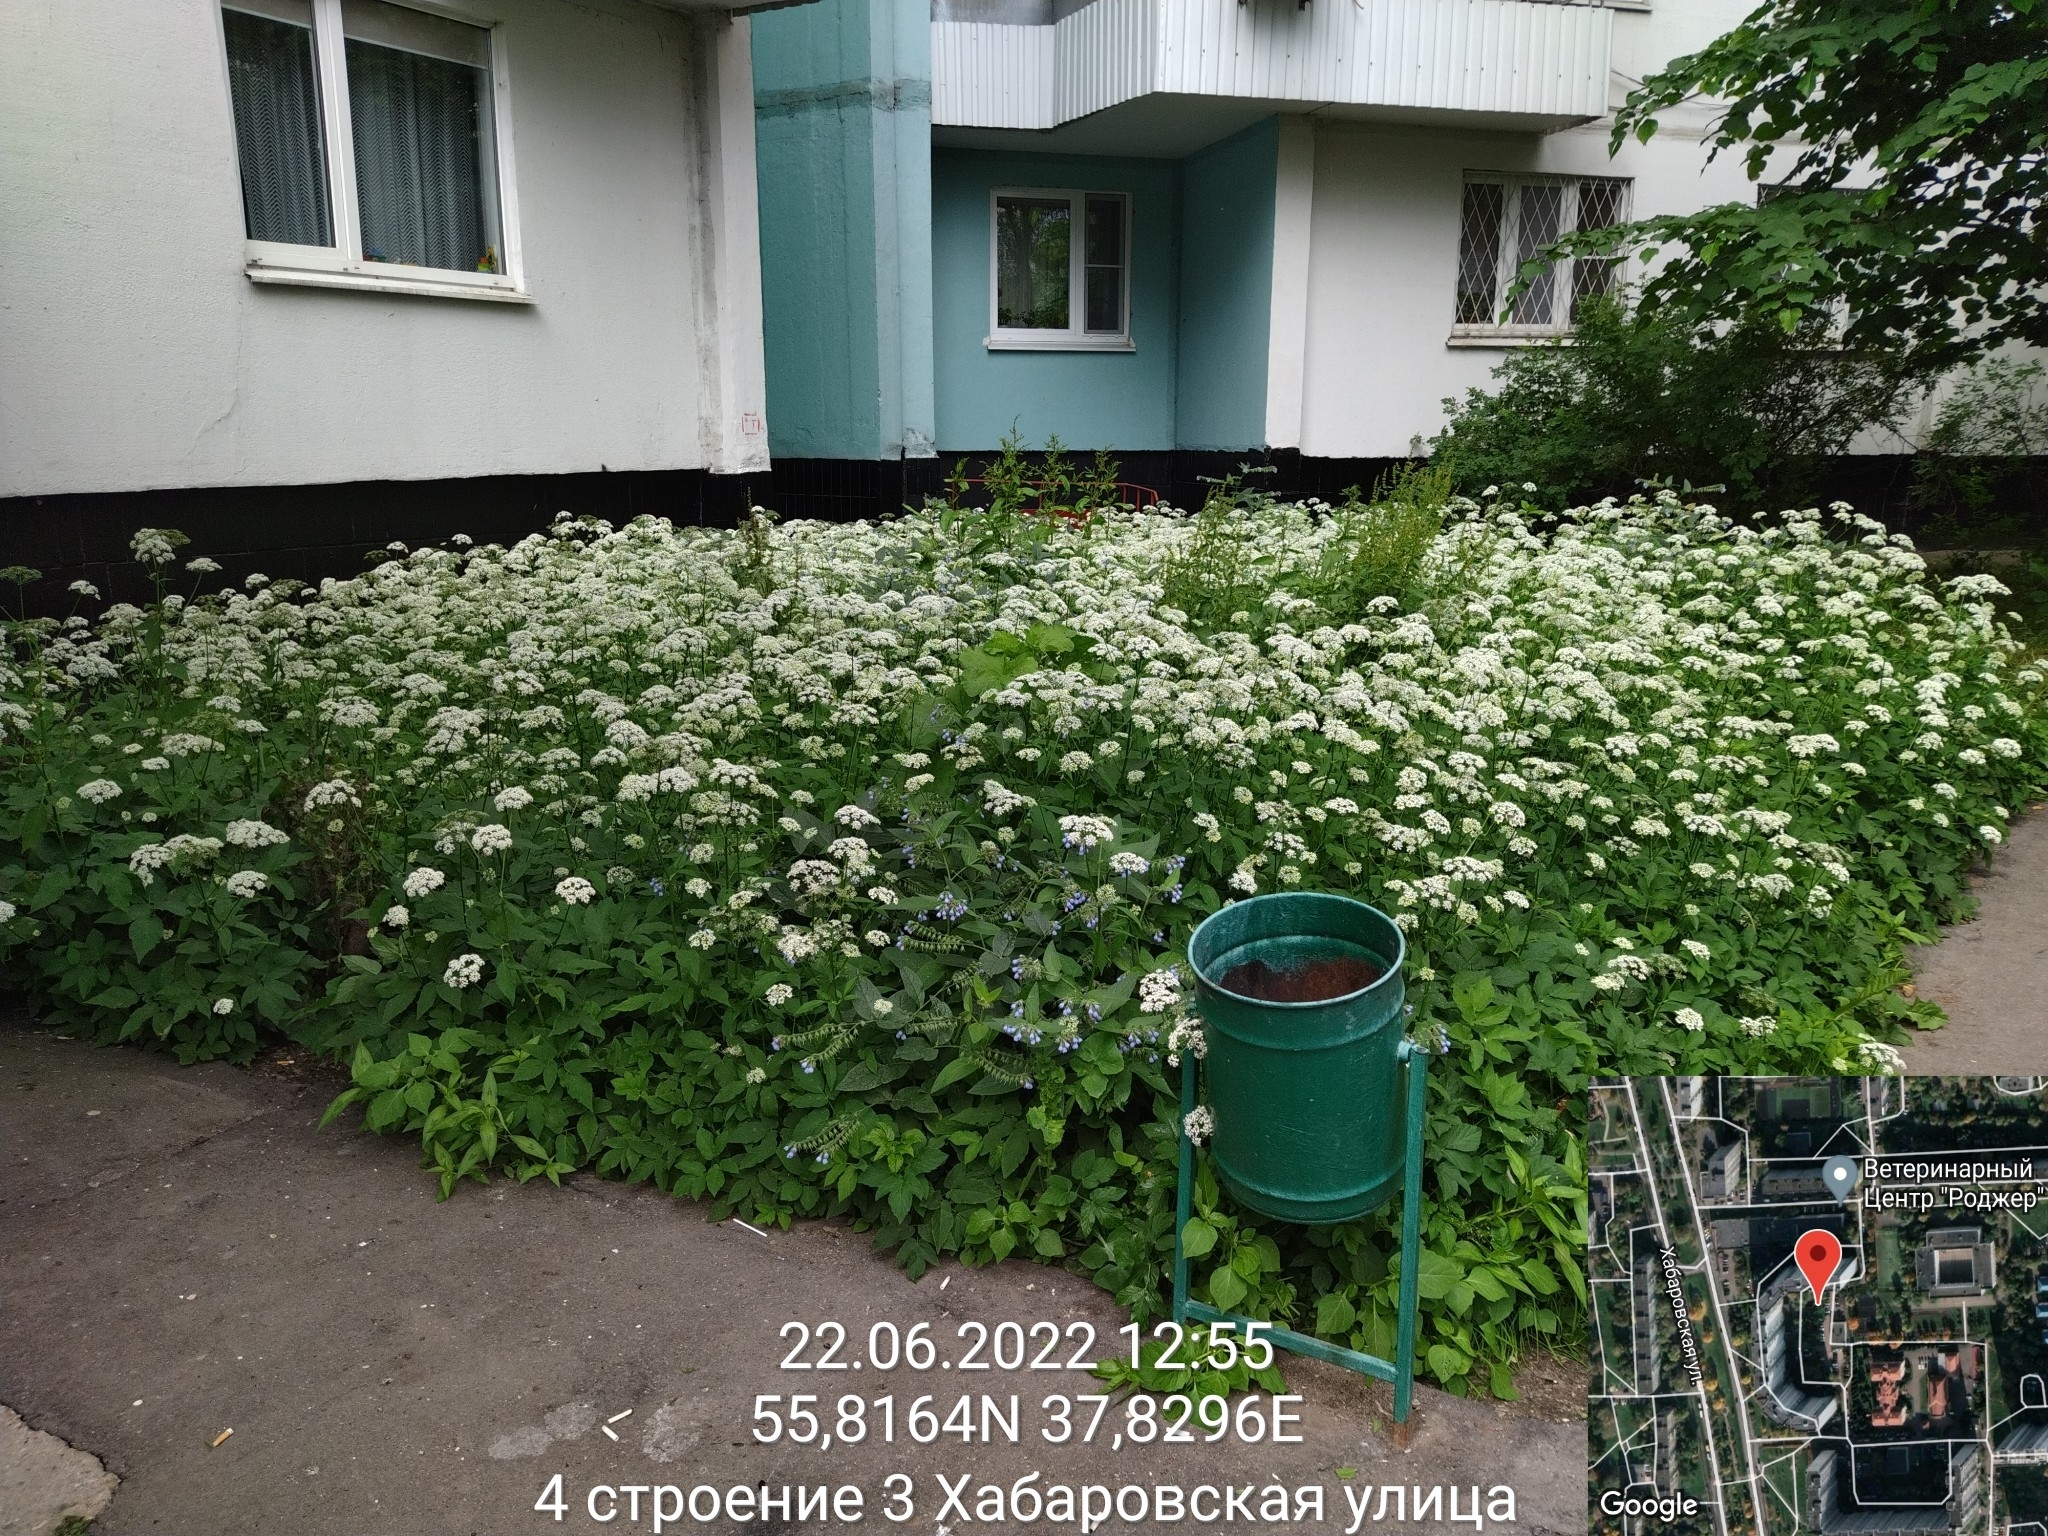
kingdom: Plantae
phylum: Tracheophyta
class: Magnoliopsida
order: Apiales
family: Apiaceae
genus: Aegopodium
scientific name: Aegopodium podagraria
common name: Ground-elder
